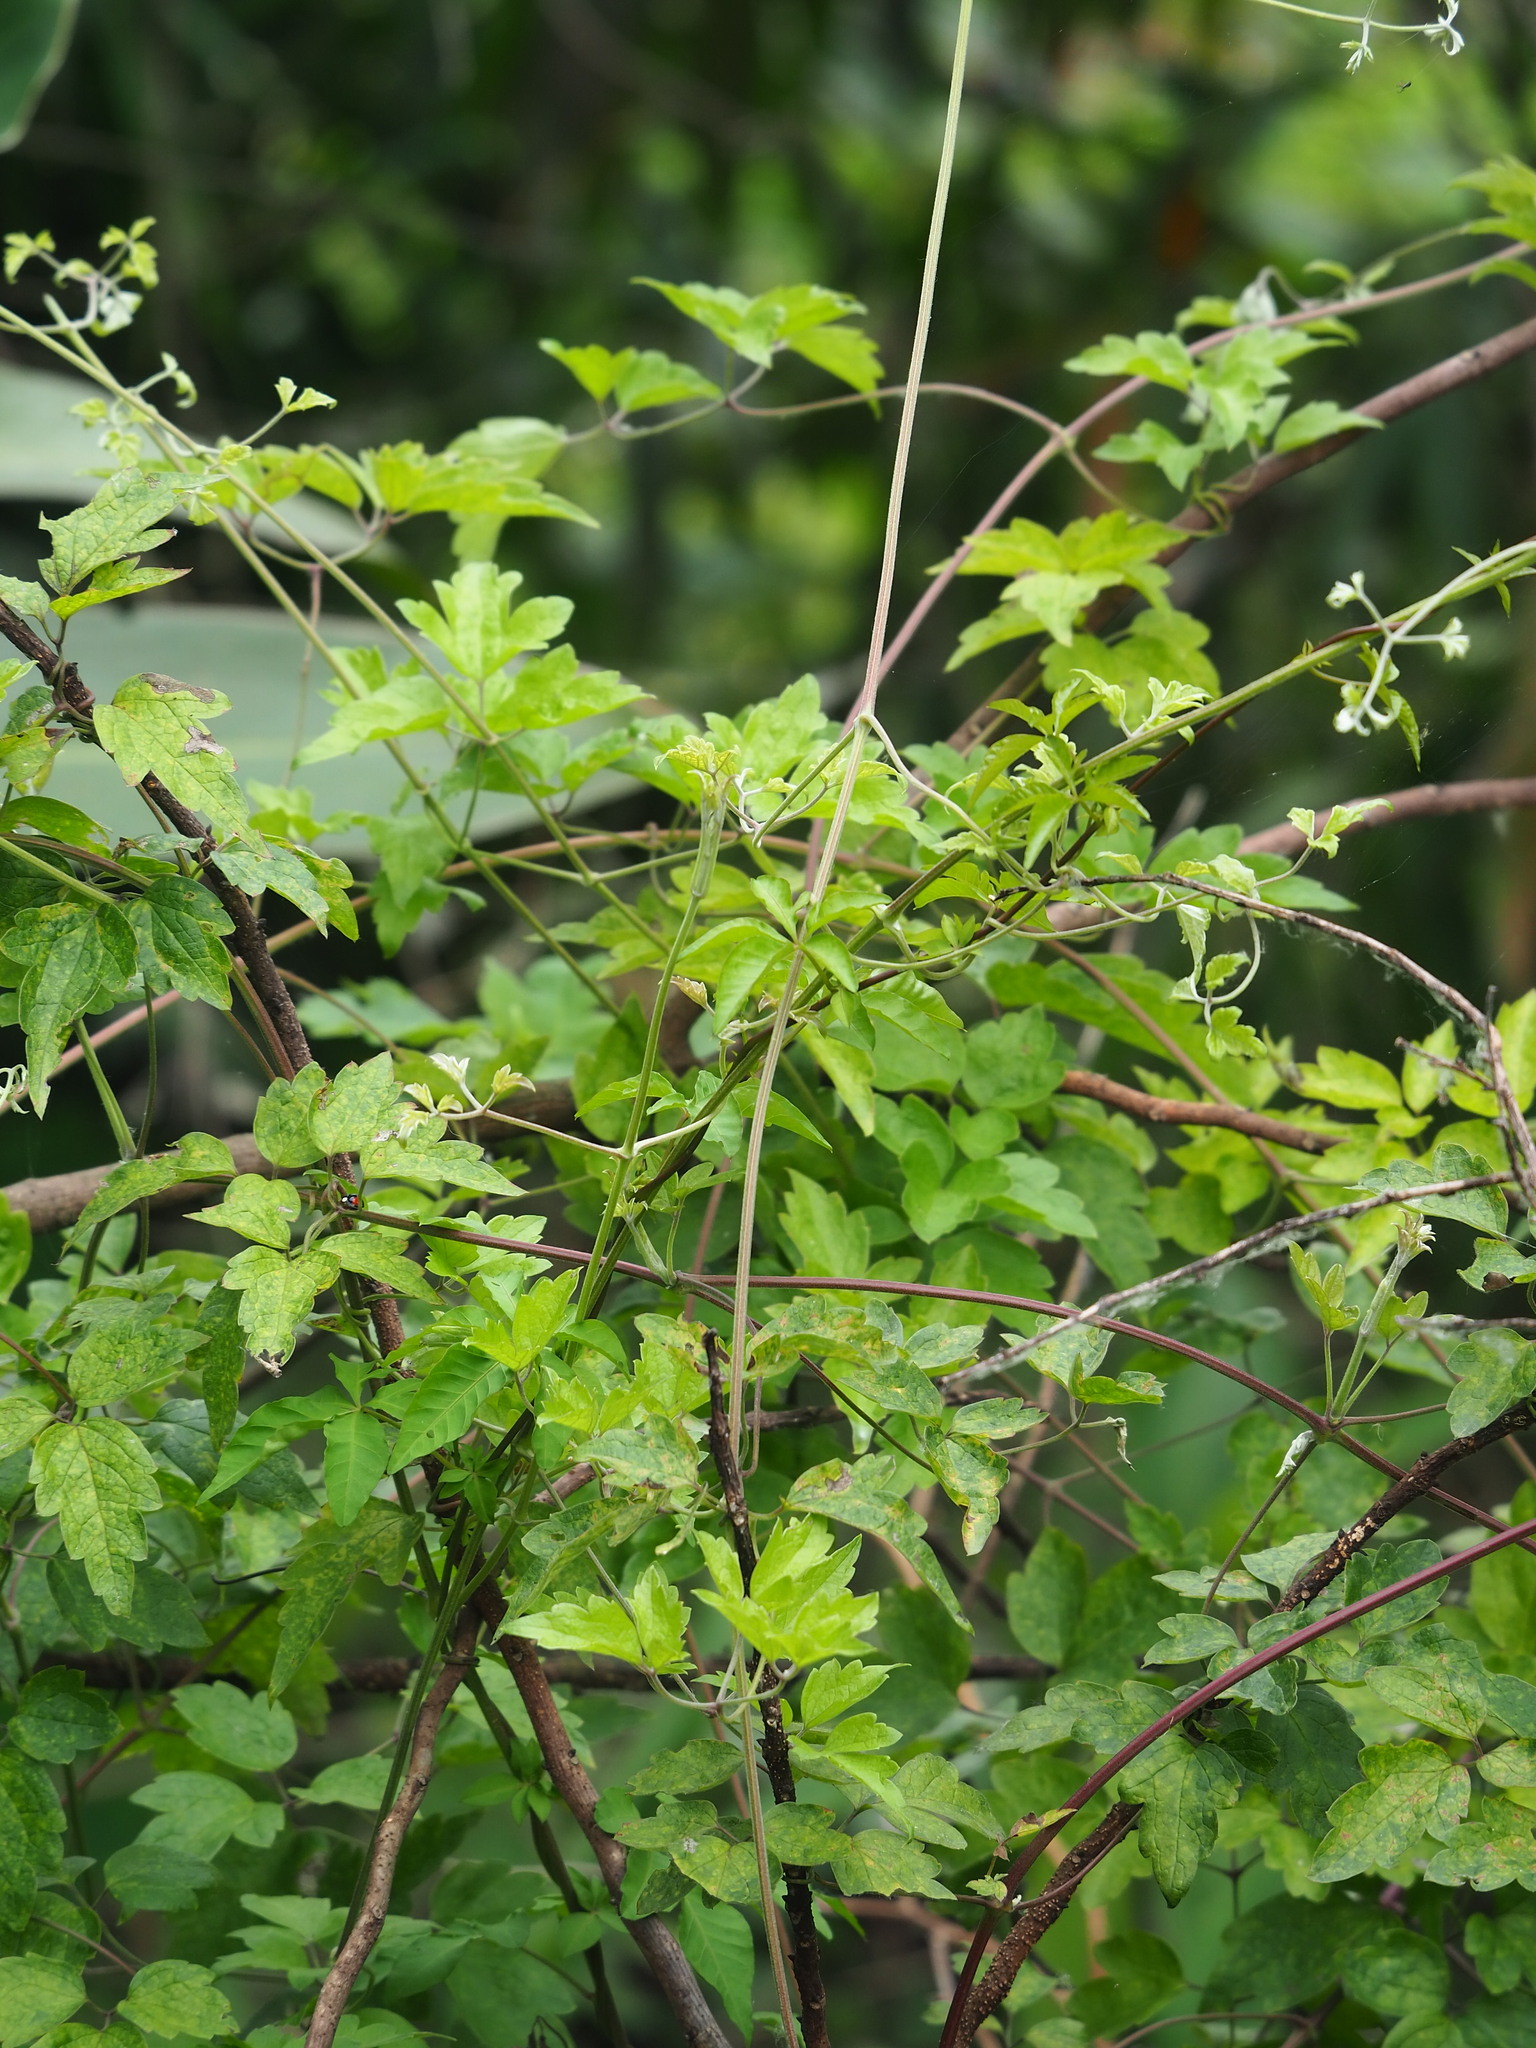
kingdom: Plantae
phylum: Tracheophyta
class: Magnoliopsida
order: Ranunculales
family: Ranunculaceae
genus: Clematis
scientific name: Clematis grata
